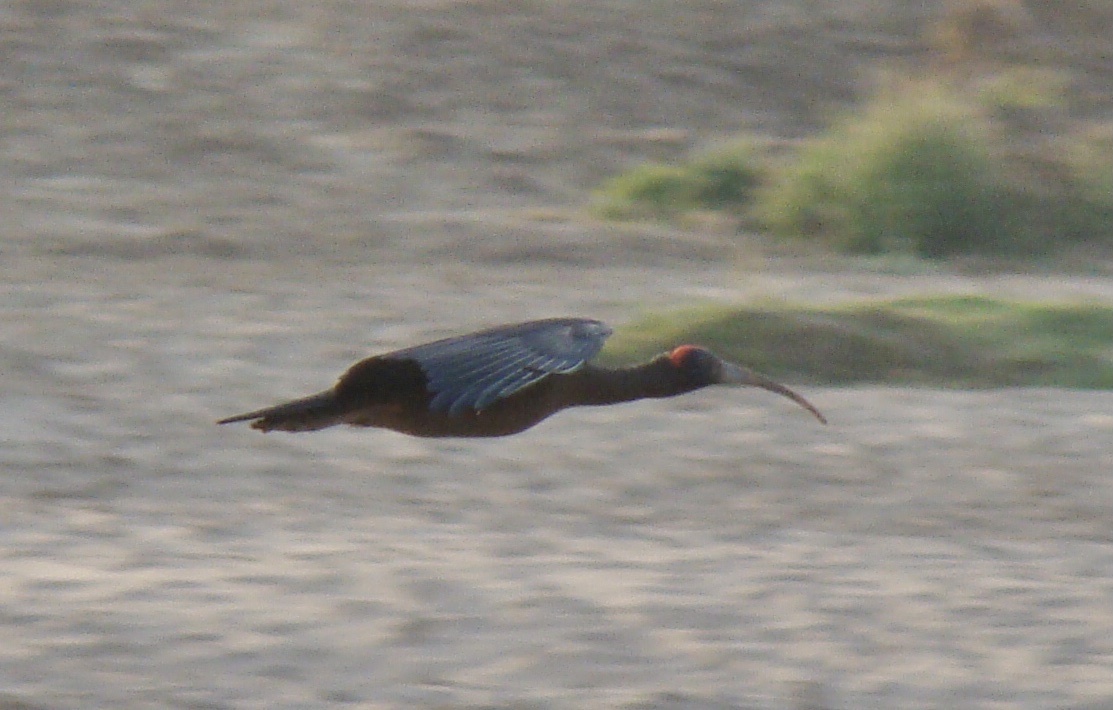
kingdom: Animalia
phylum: Chordata
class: Aves
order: Pelecaniformes
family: Threskiornithidae
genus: Pseudibis
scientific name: Pseudibis papillosa
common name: Red-naped ibis
